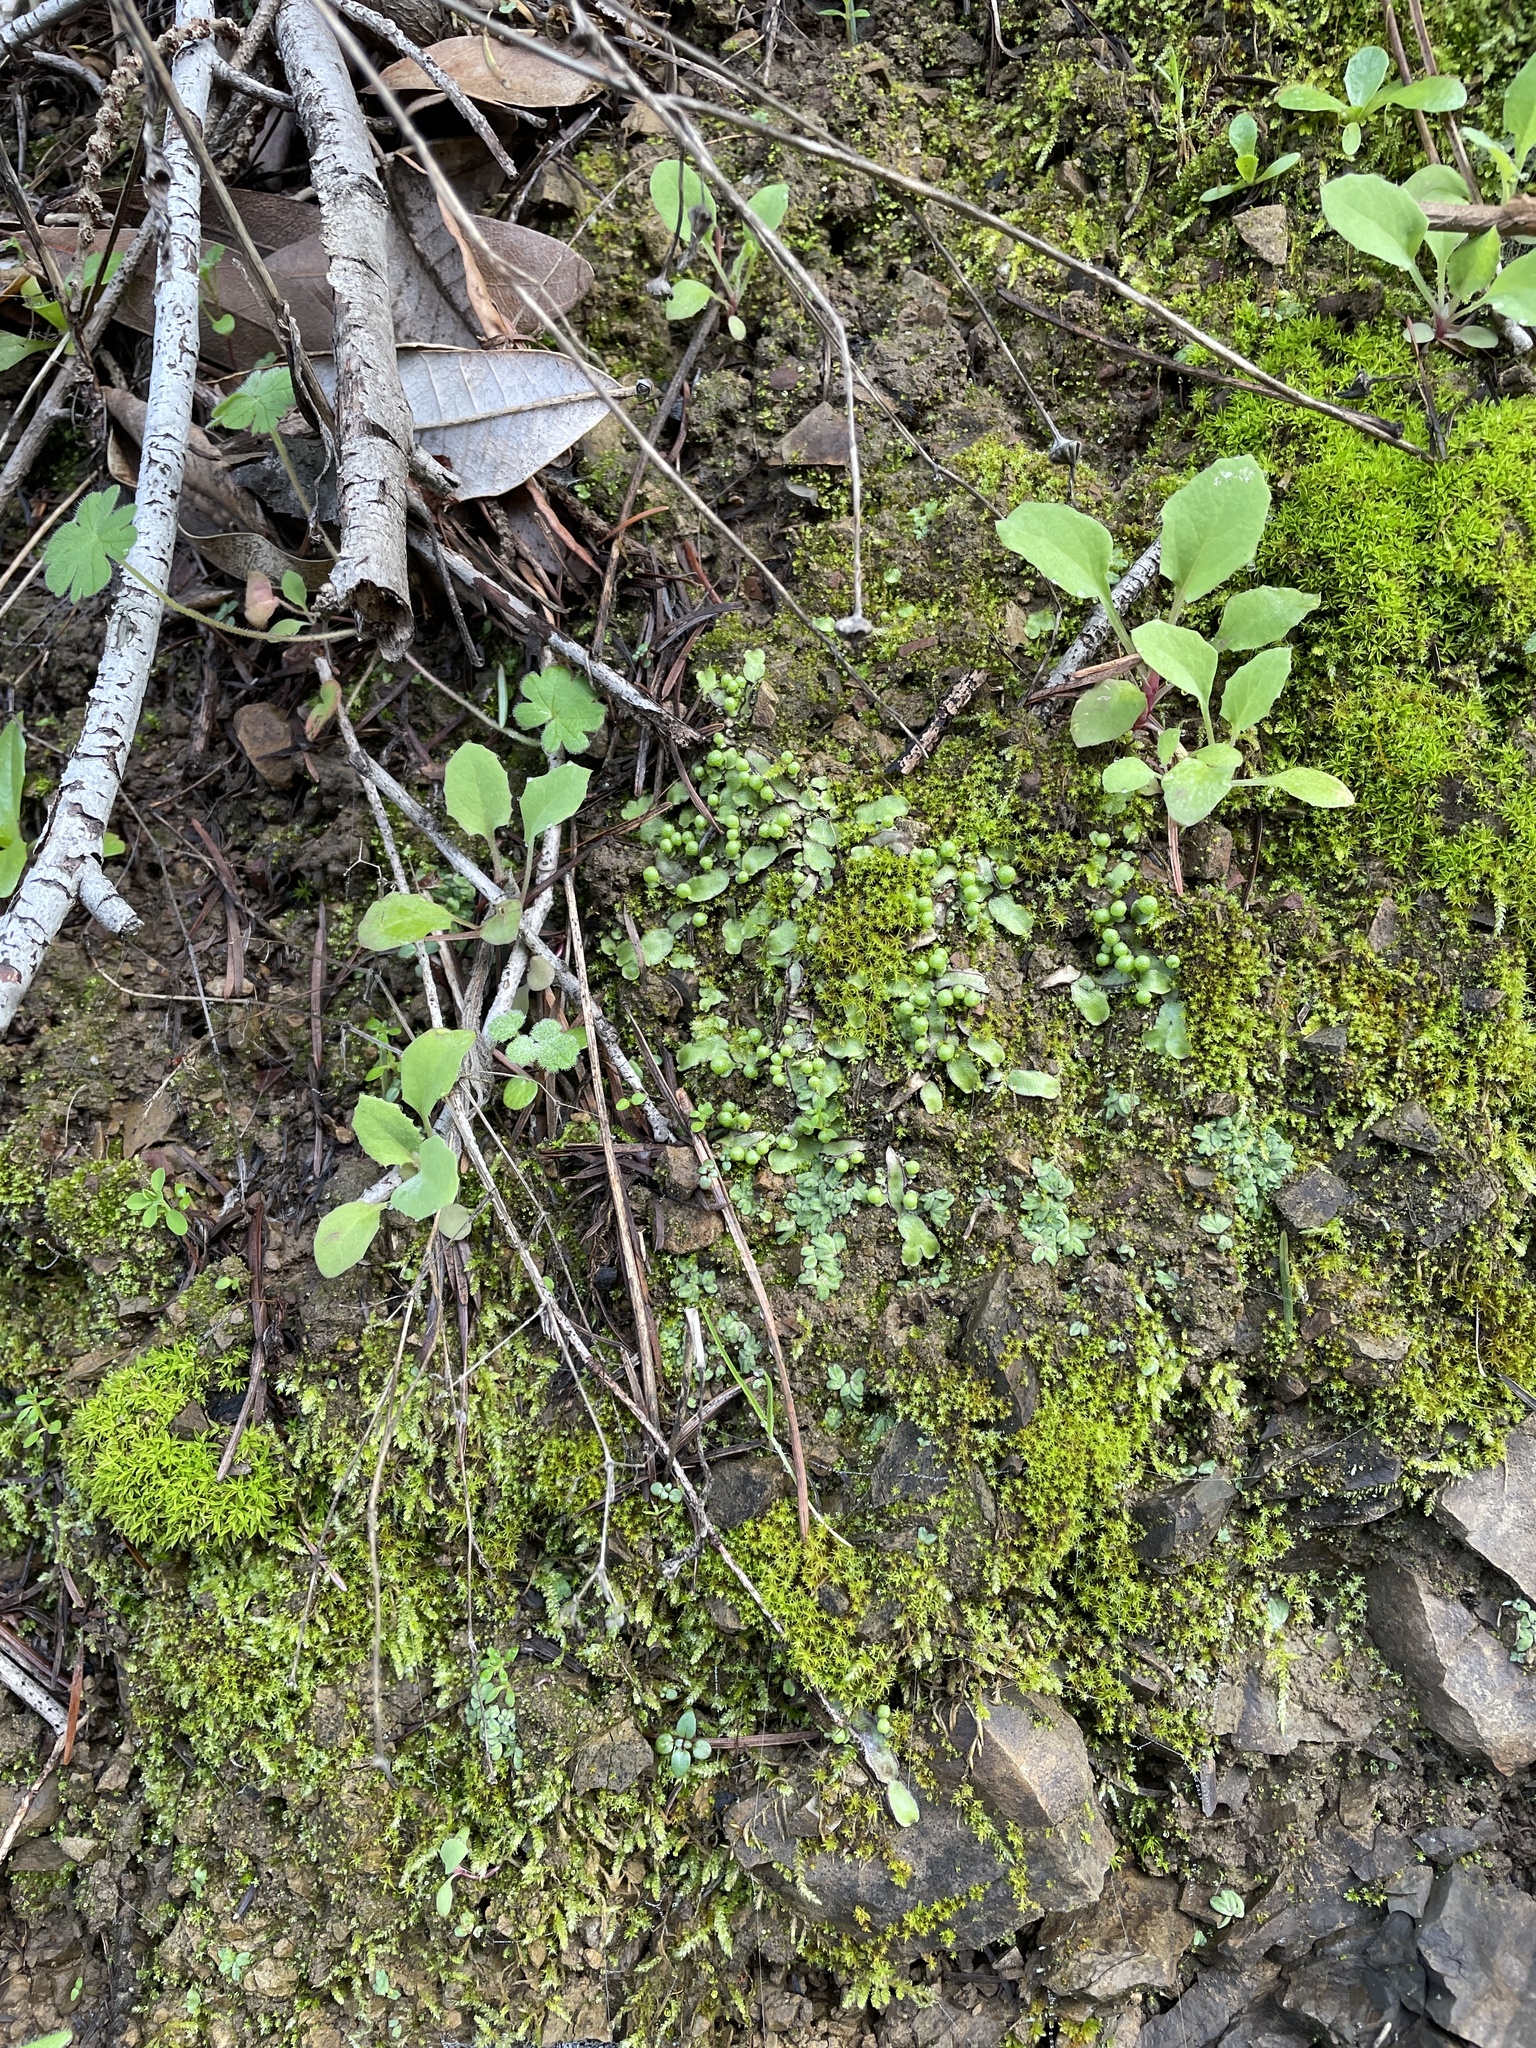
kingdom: Plantae
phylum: Marchantiophyta
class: Marchantiopsida
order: Marchantiales
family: Aytoniaceae
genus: Asterella
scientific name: Asterella palmeri
